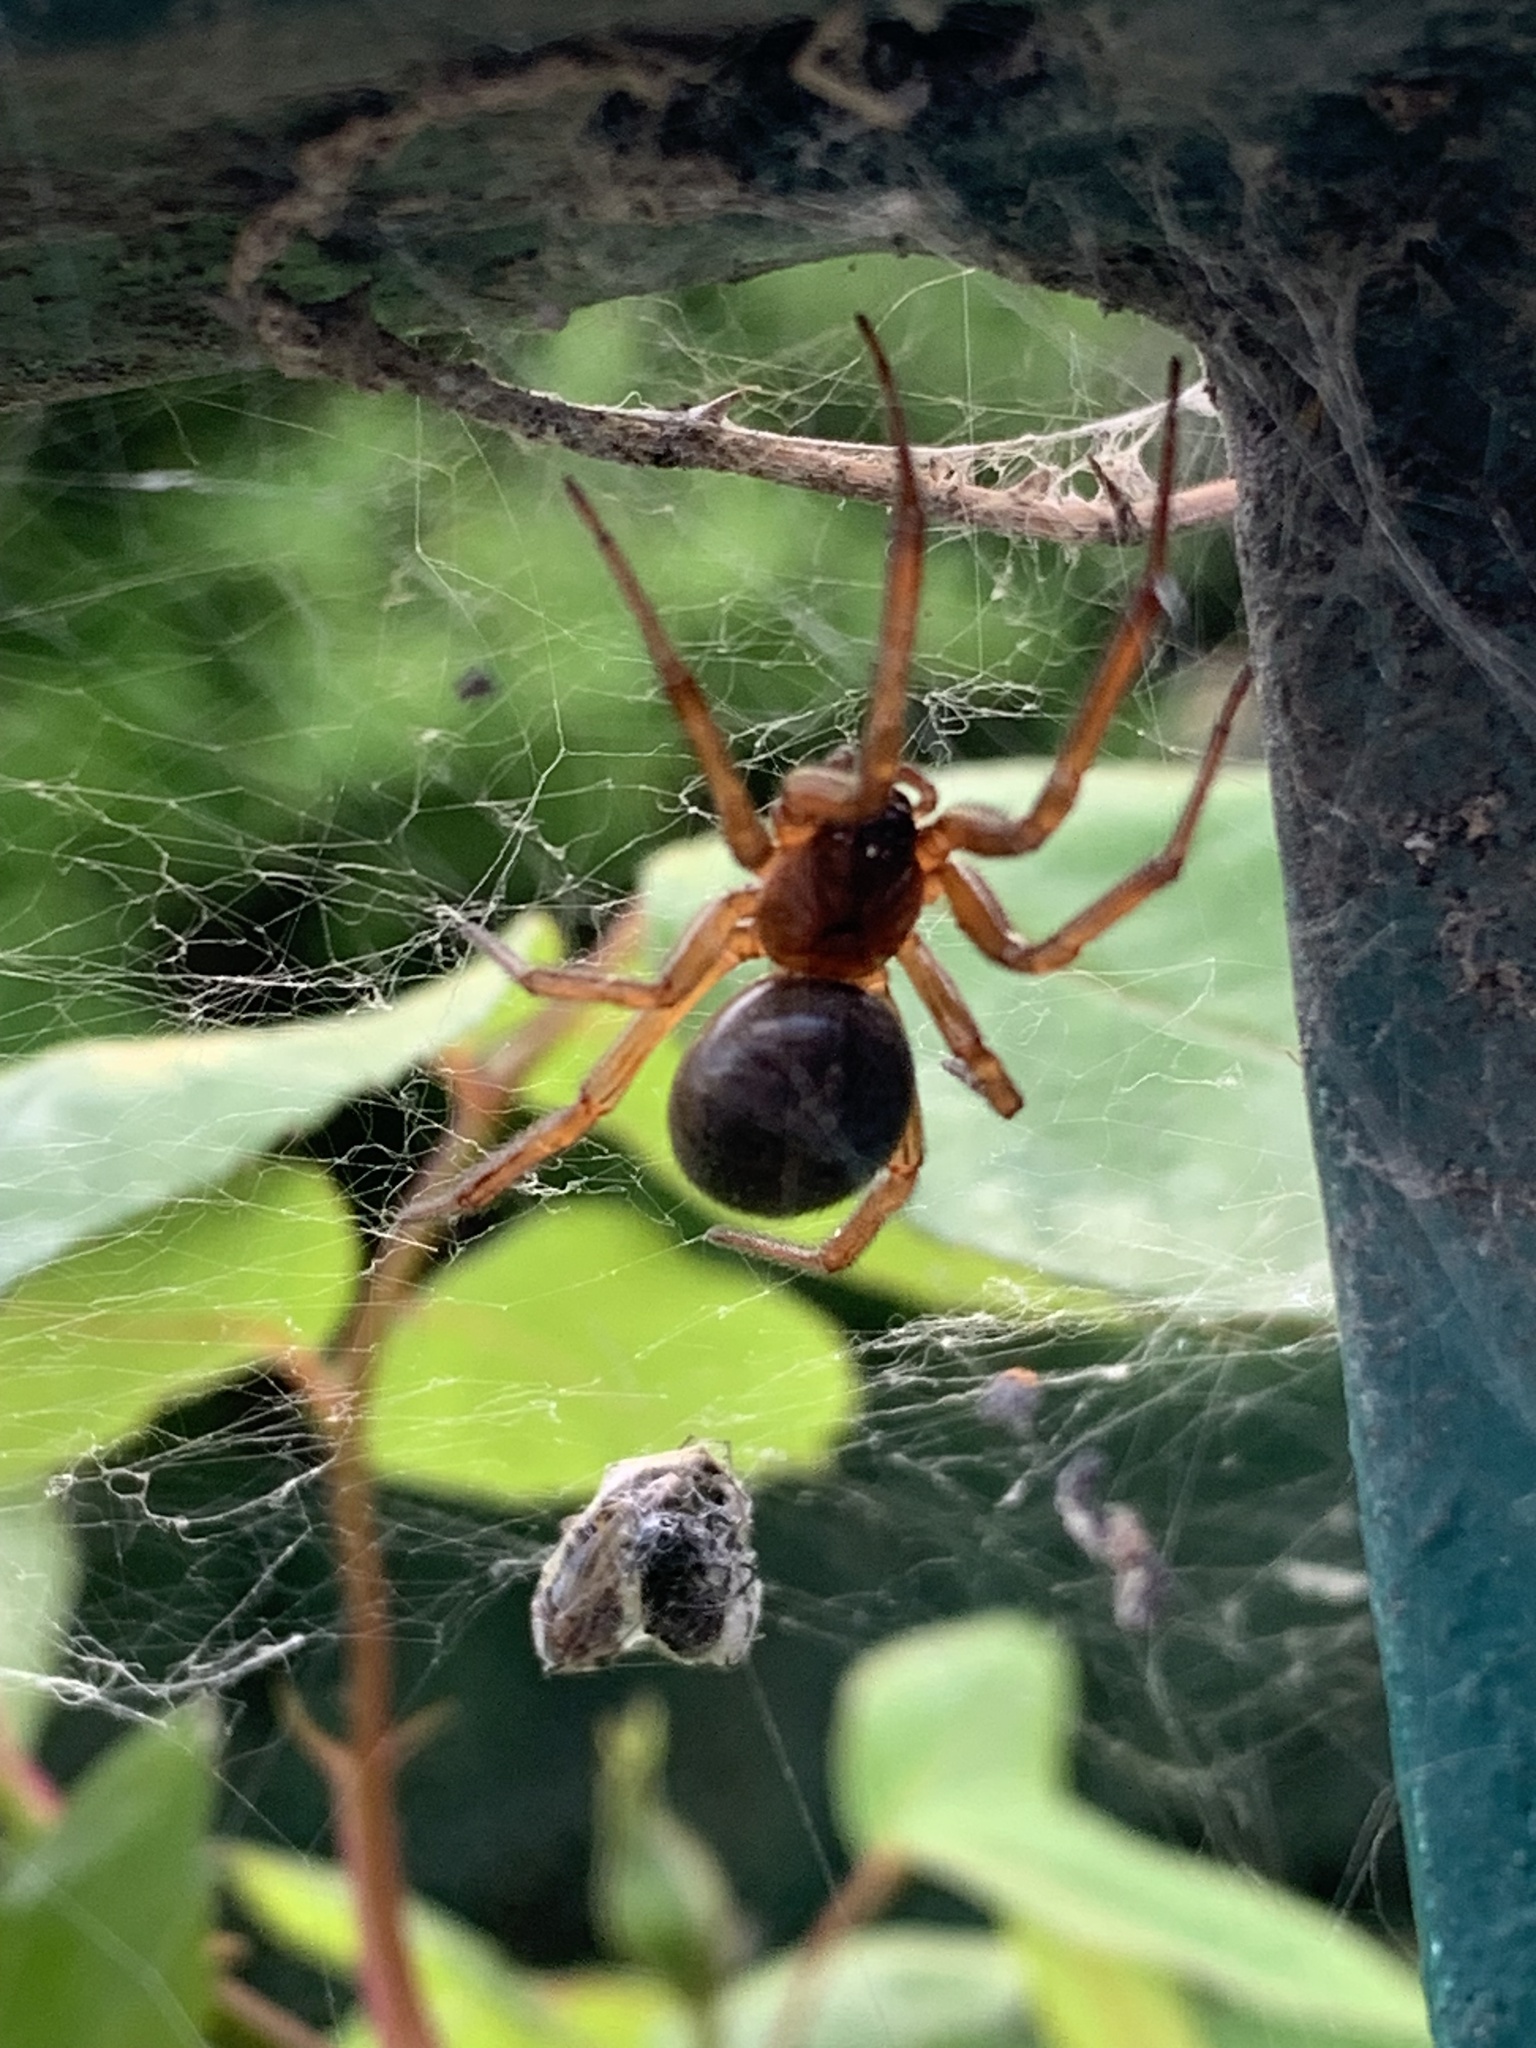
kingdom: Animalia
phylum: Arthropoda
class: Arachnida
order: Araneae
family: Theridiidae
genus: Steatoda
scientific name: Steatoda nobilis
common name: Cobweb weaver
